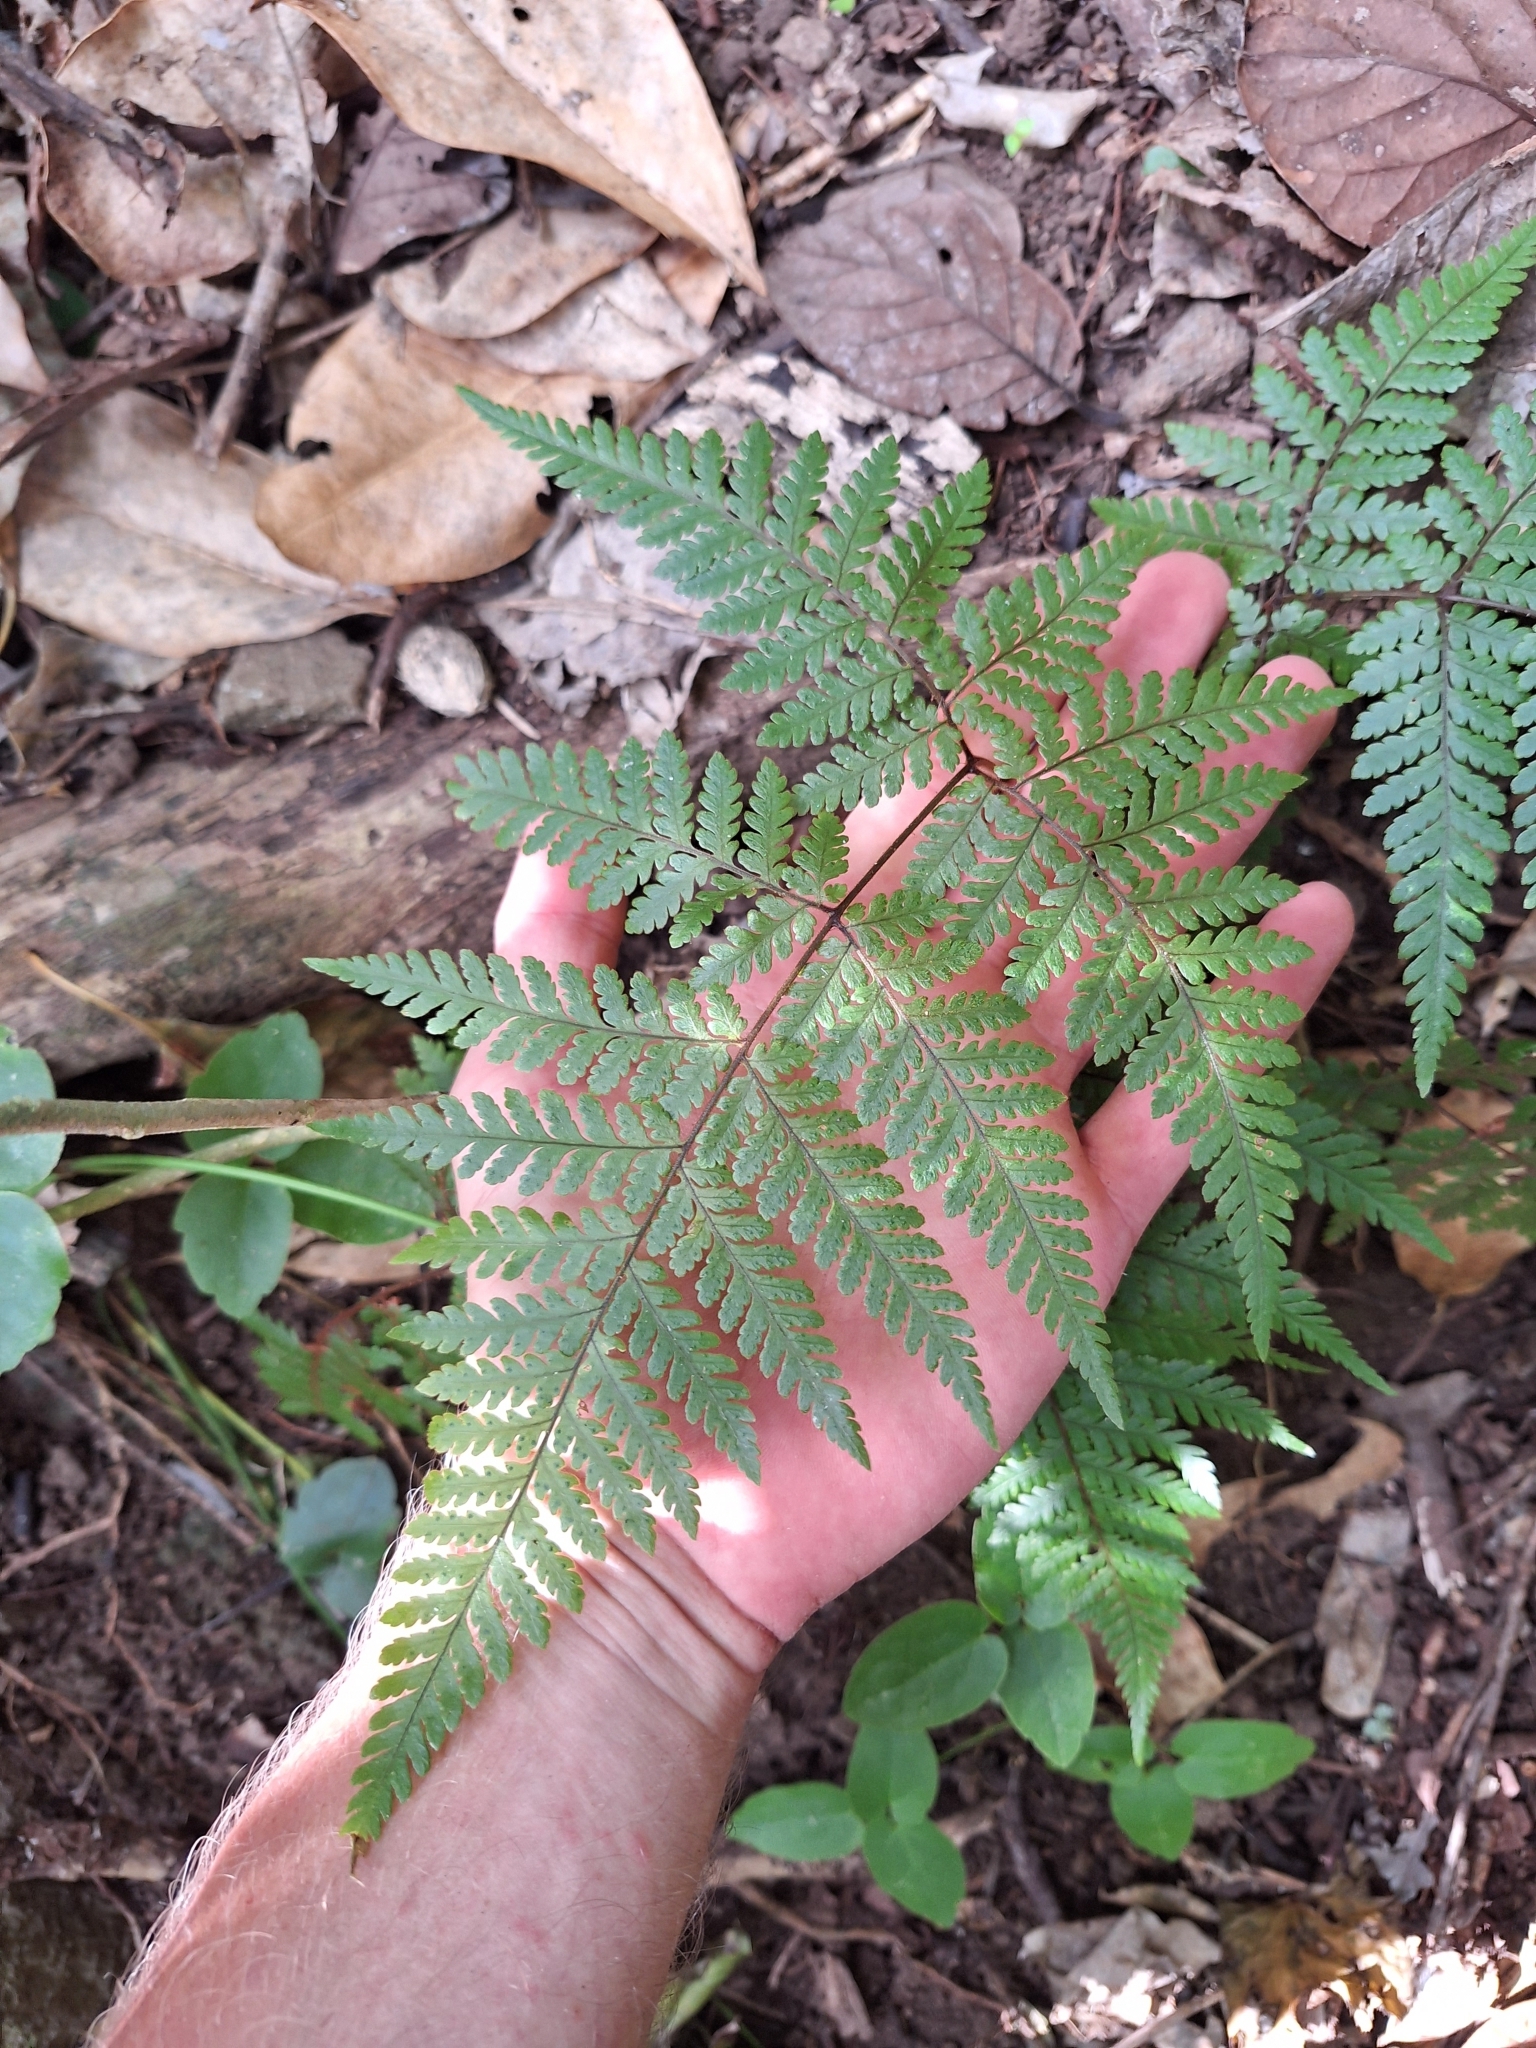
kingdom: Plantae
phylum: Tracheophyta
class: Polypodiopsida
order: Polypodiales
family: Dryopteridaceae
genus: Lastreopsis
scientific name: Lastreopsis velutina
